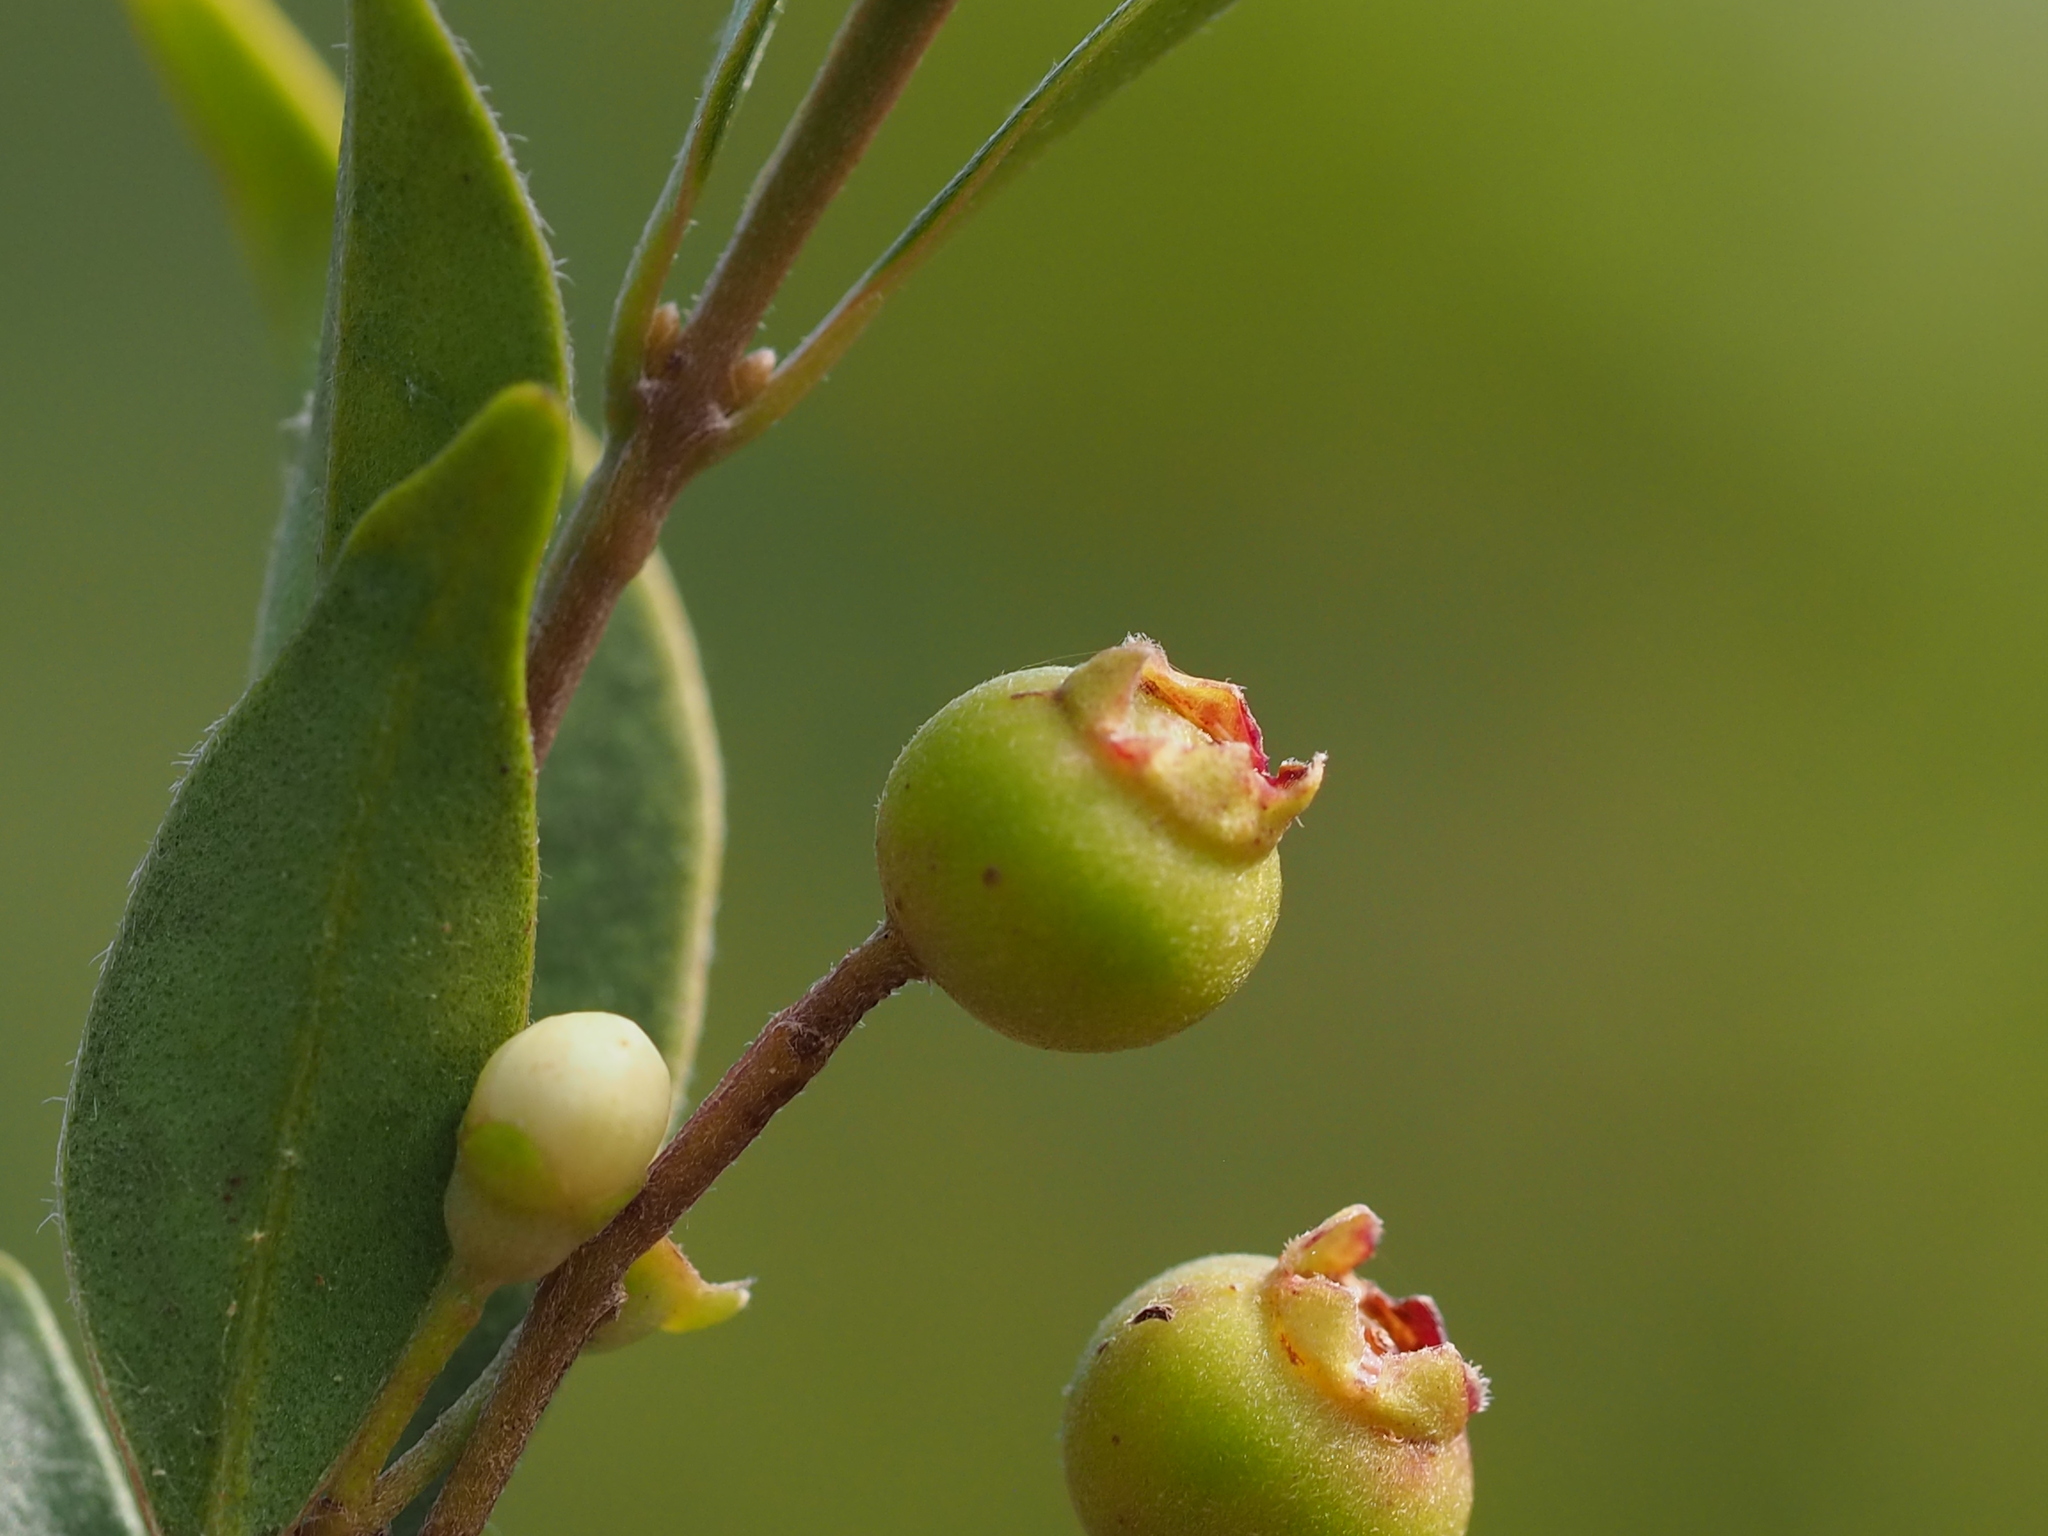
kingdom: Plantae
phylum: Tracheophyta
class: Magnoliopsida
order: Myrtales
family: Myrtaceae
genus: Decaspermum
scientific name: Decaspermum gracilentum
